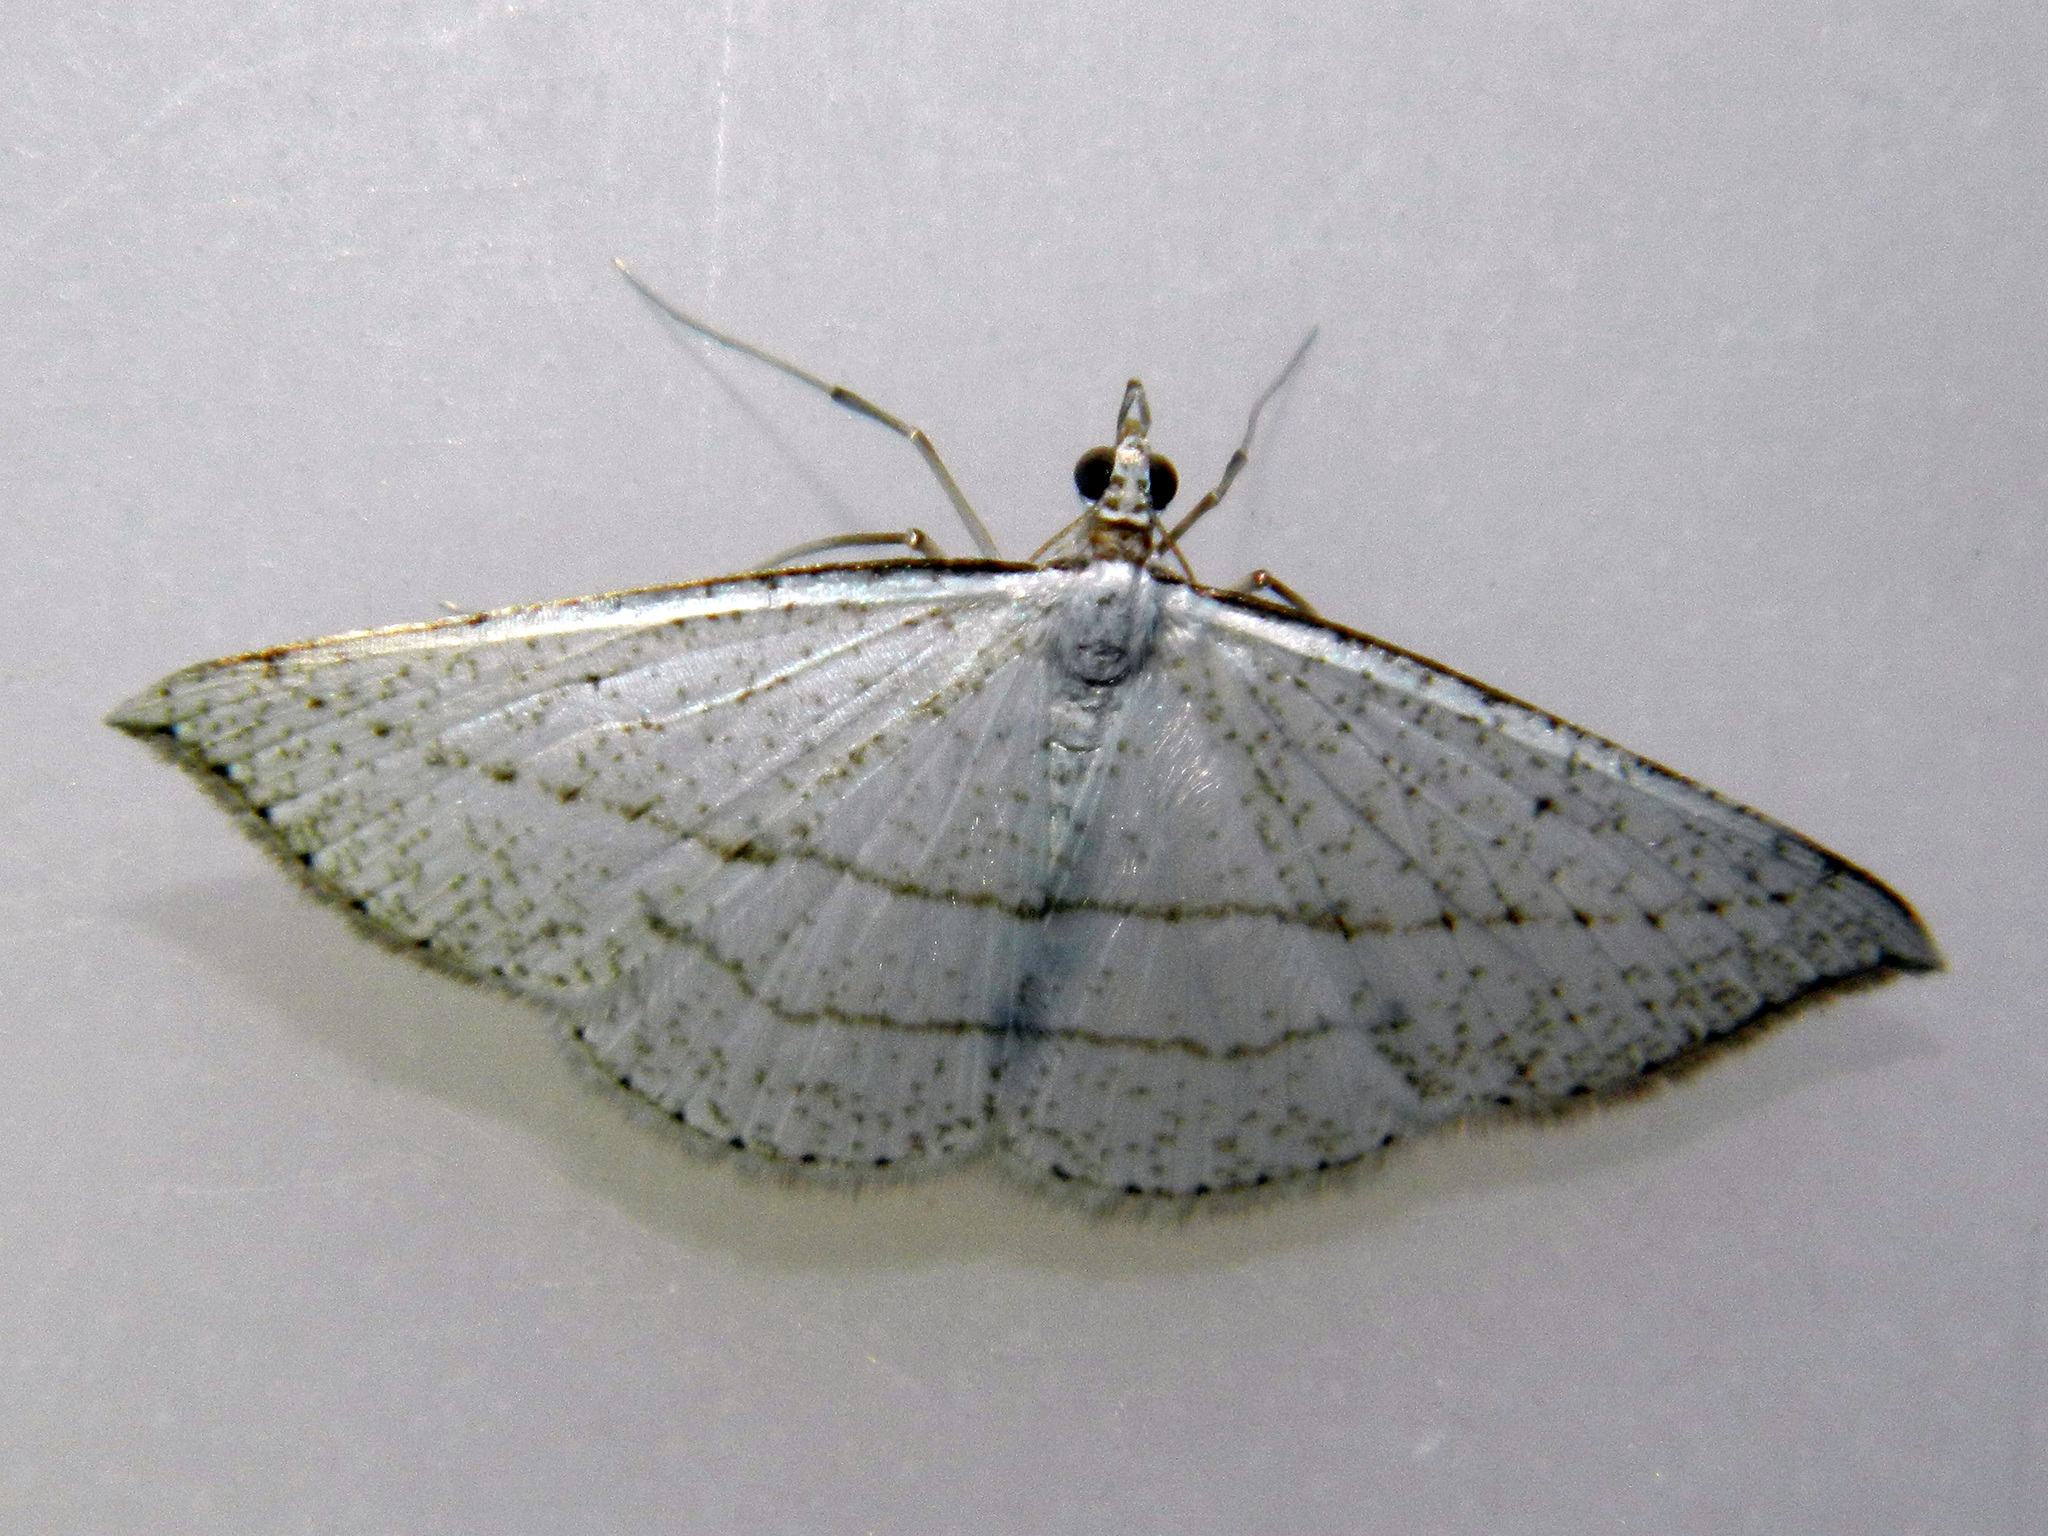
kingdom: Animalia
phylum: Arthropoda
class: Insecta
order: Lepidoptera
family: Geometridae
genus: Zanclopteryx
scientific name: Zanclopteryx mexicana
